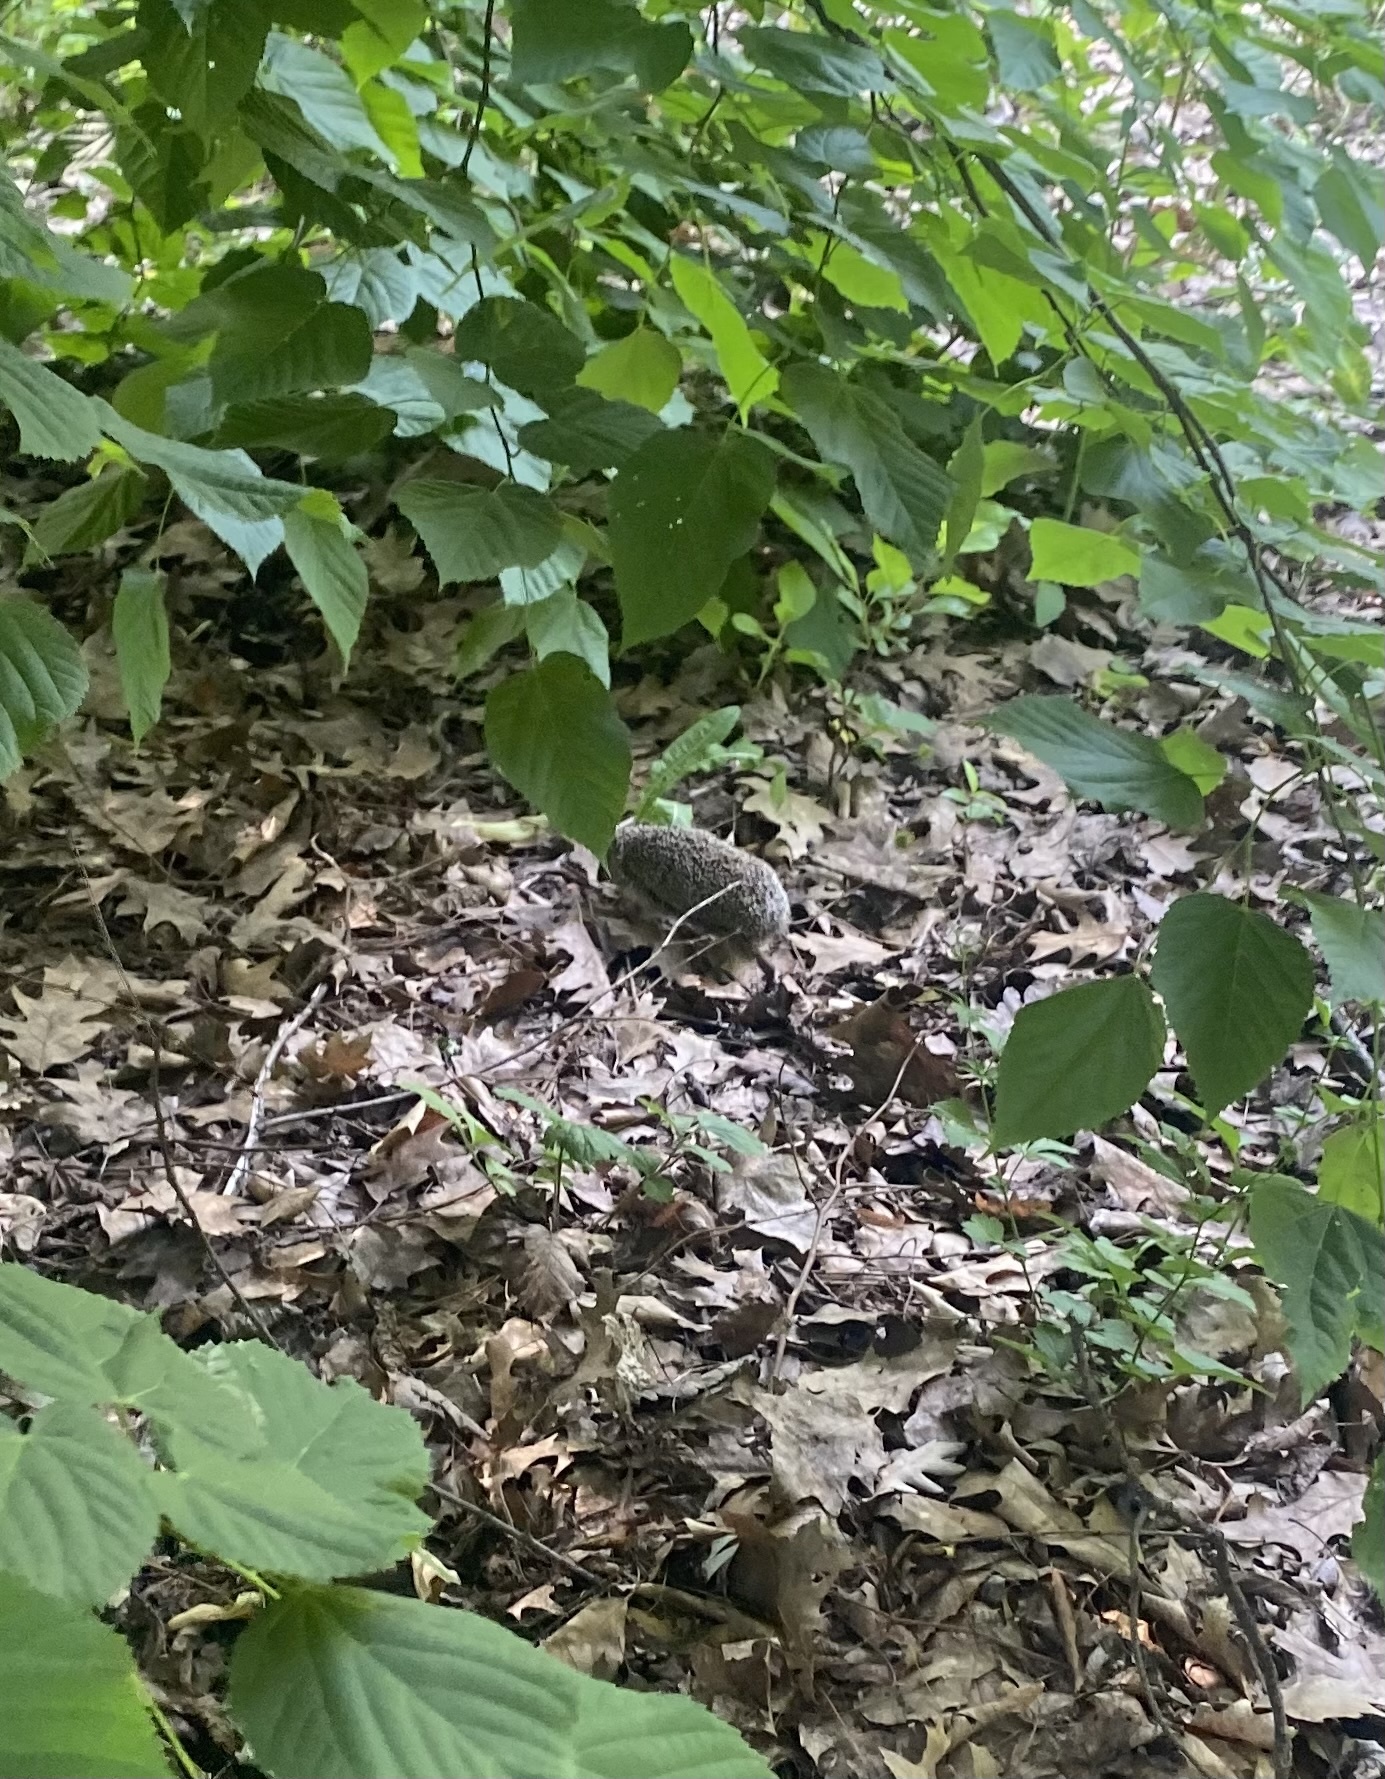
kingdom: Animalia
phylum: Chordata
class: Mammalia
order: Erinaceomorpha
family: Erinaceidae
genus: Erinaceus
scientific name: Erinaceus roumanicus
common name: Northern white-breasted hedgehog
